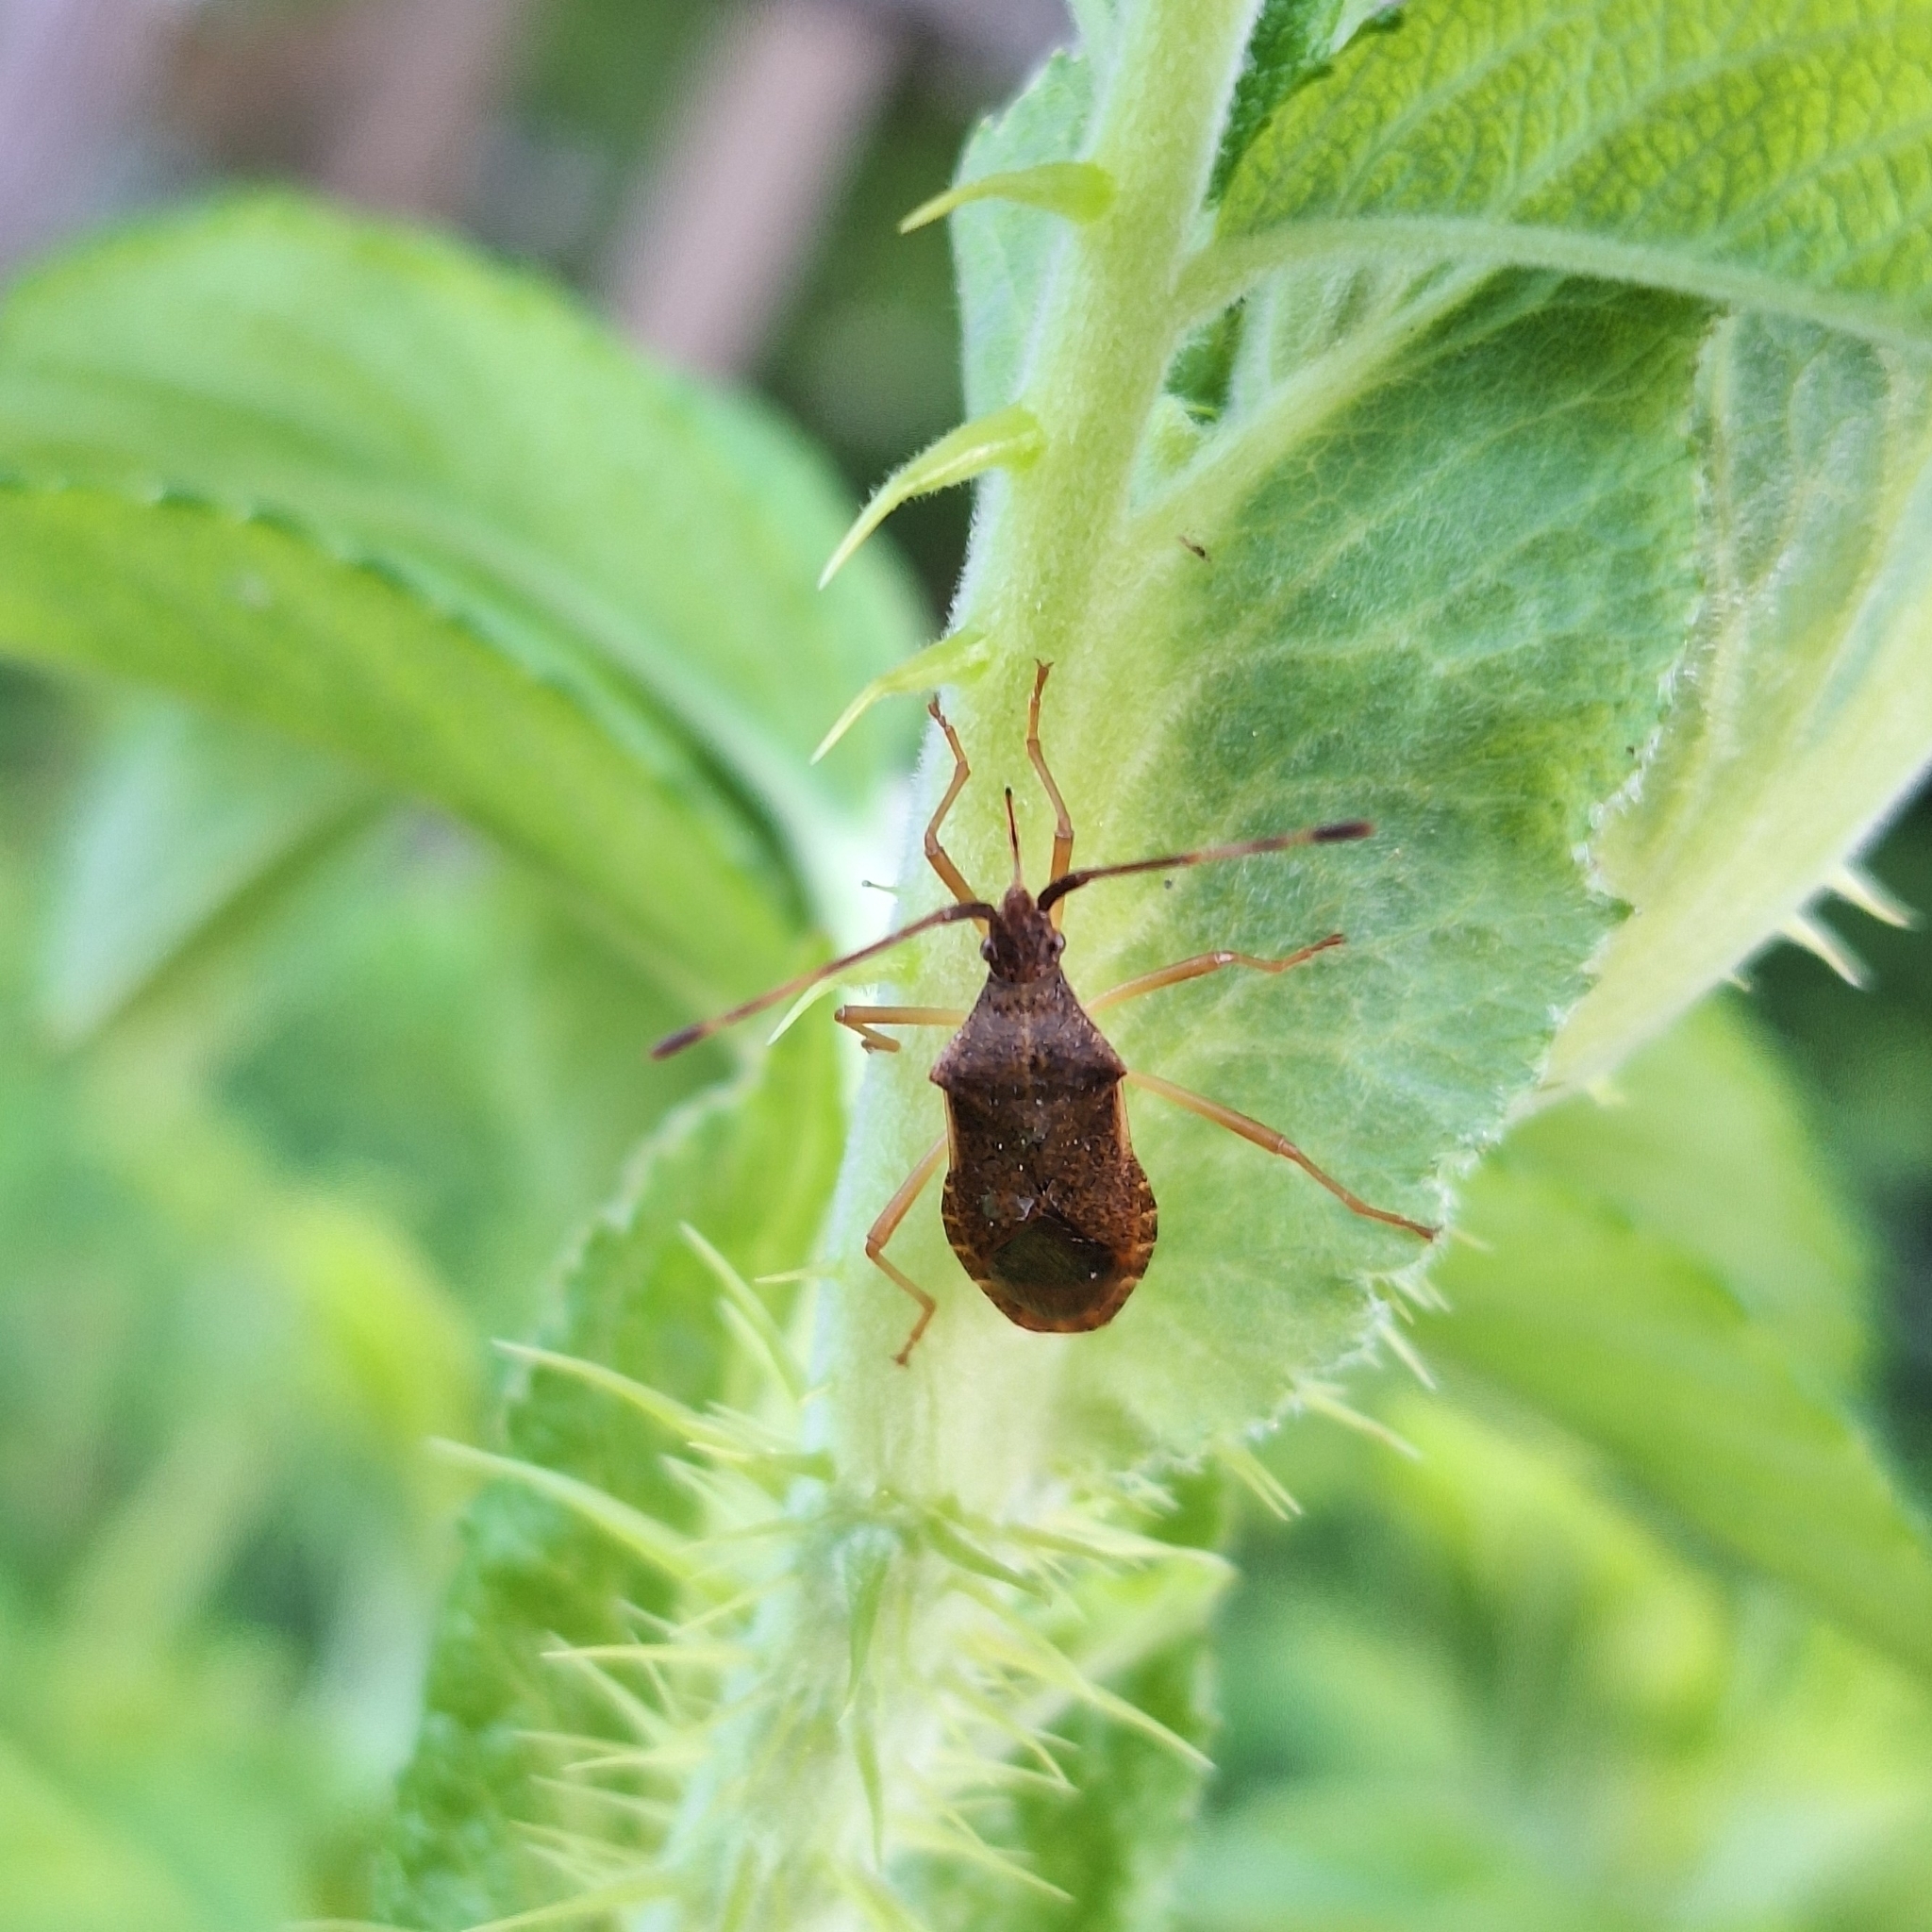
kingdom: Animalia
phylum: Arthropoda
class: Insecta
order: Hemiptera
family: Coreidae
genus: Gonocerus
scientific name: Gonocerus acuteangulatus
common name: Box bug
